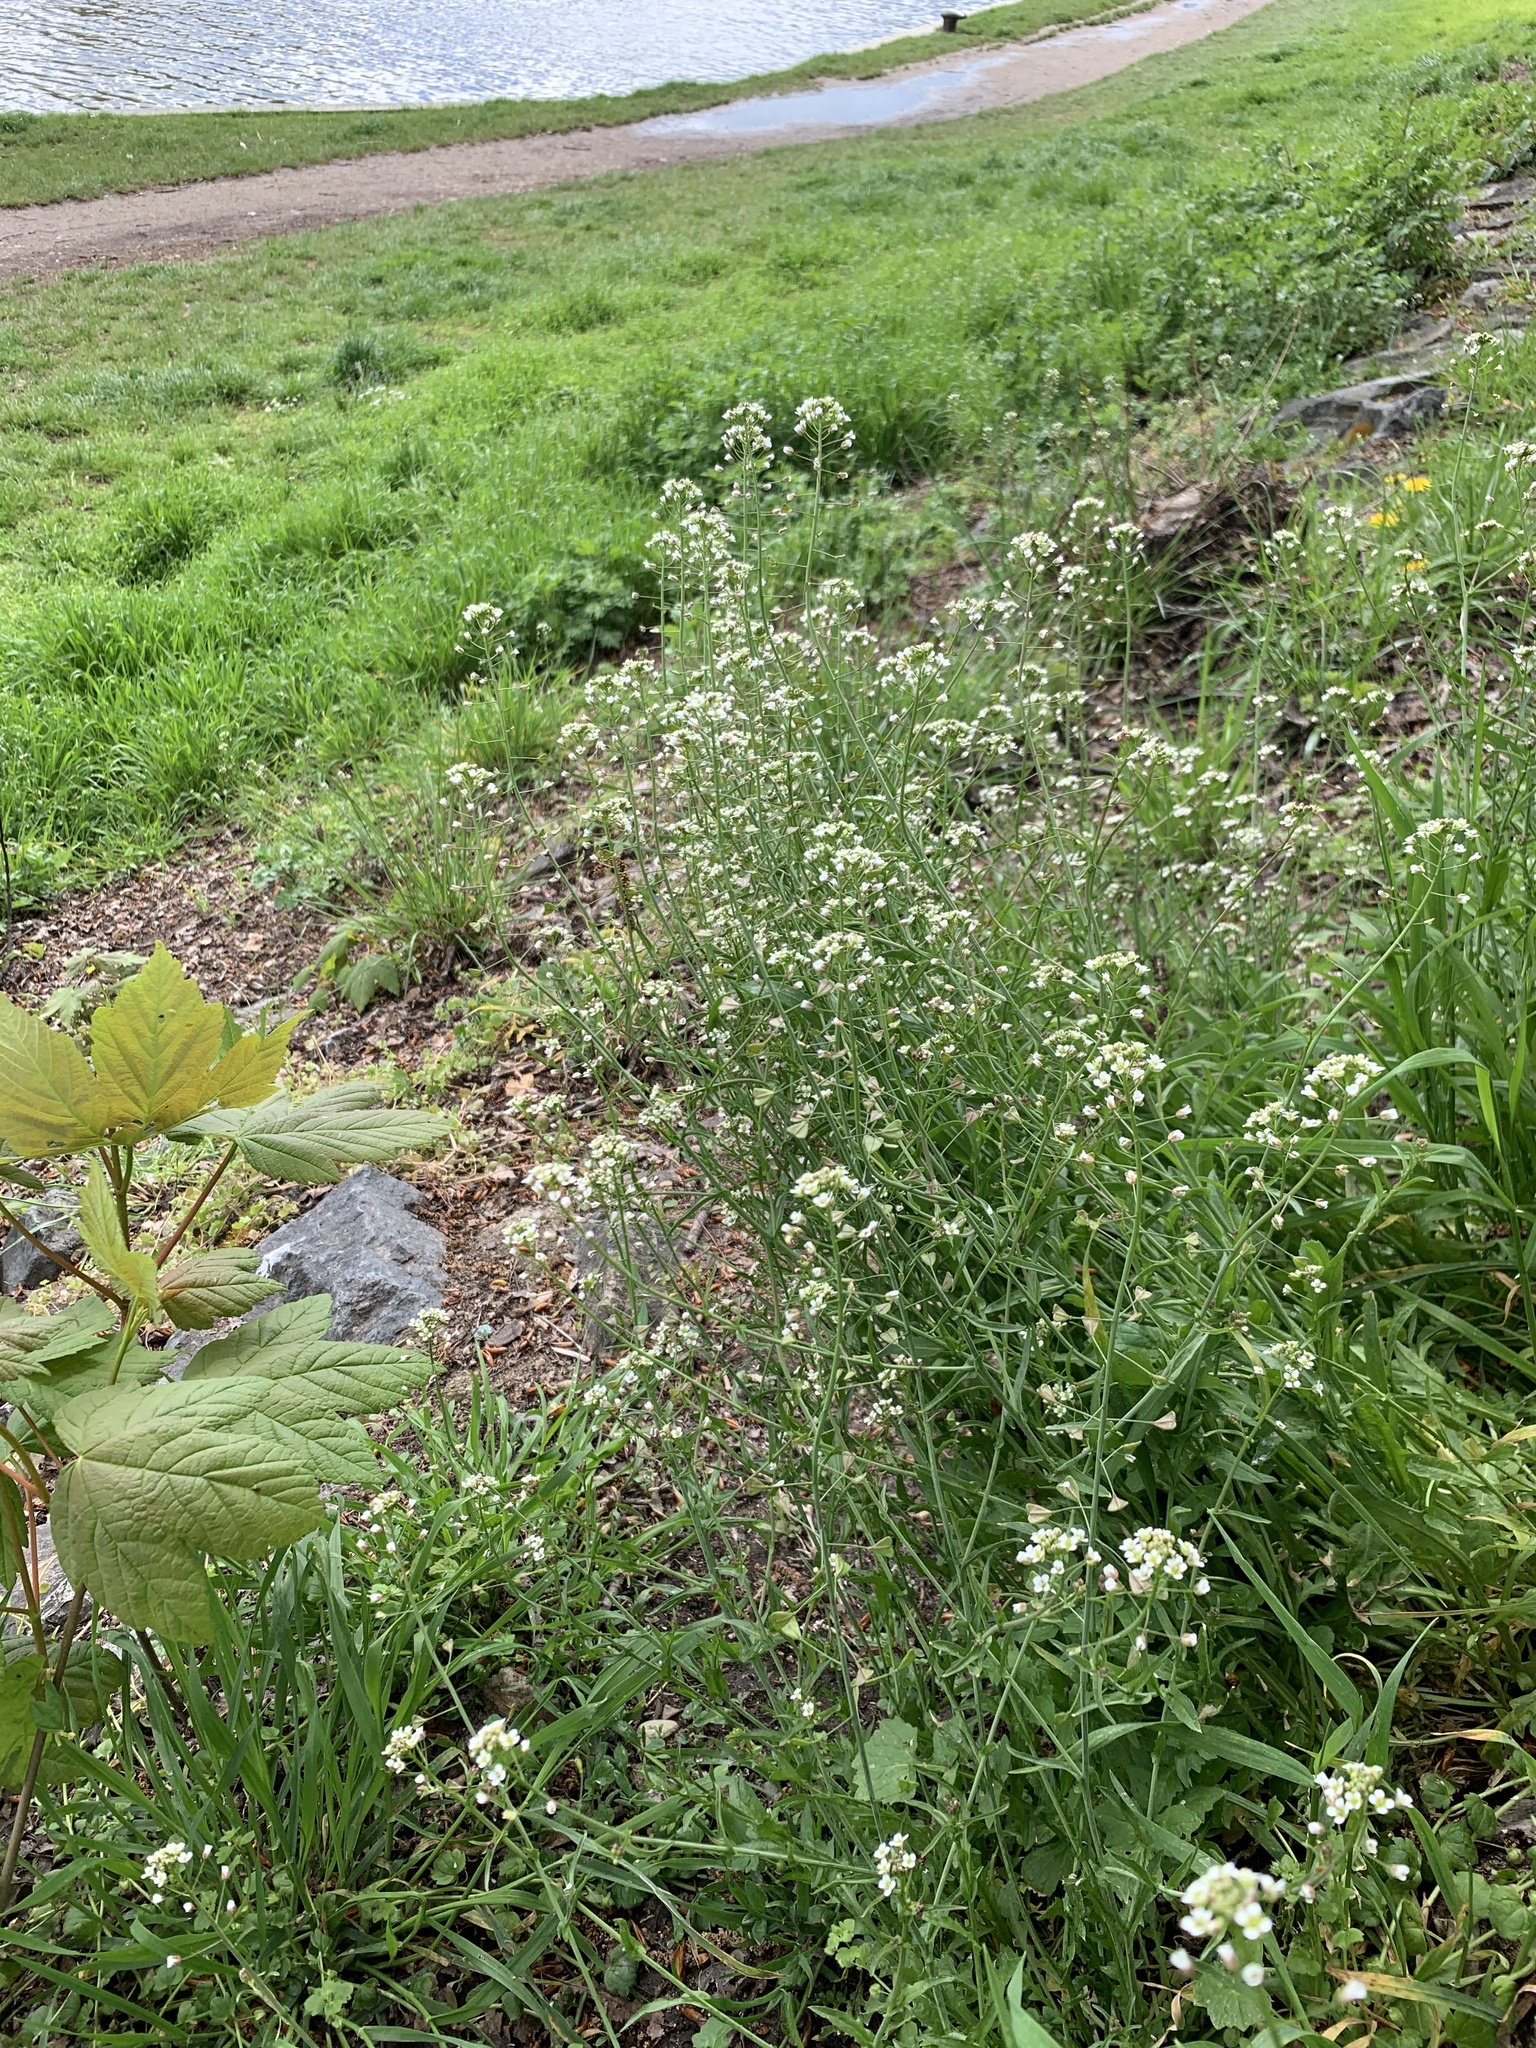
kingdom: Plantae
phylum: Tracheophyta
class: Magnoliopsida
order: Brassicales
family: Brassicaceae
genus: Capsella
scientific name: Capsella bursa-pastoris
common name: Shepherd's purse
